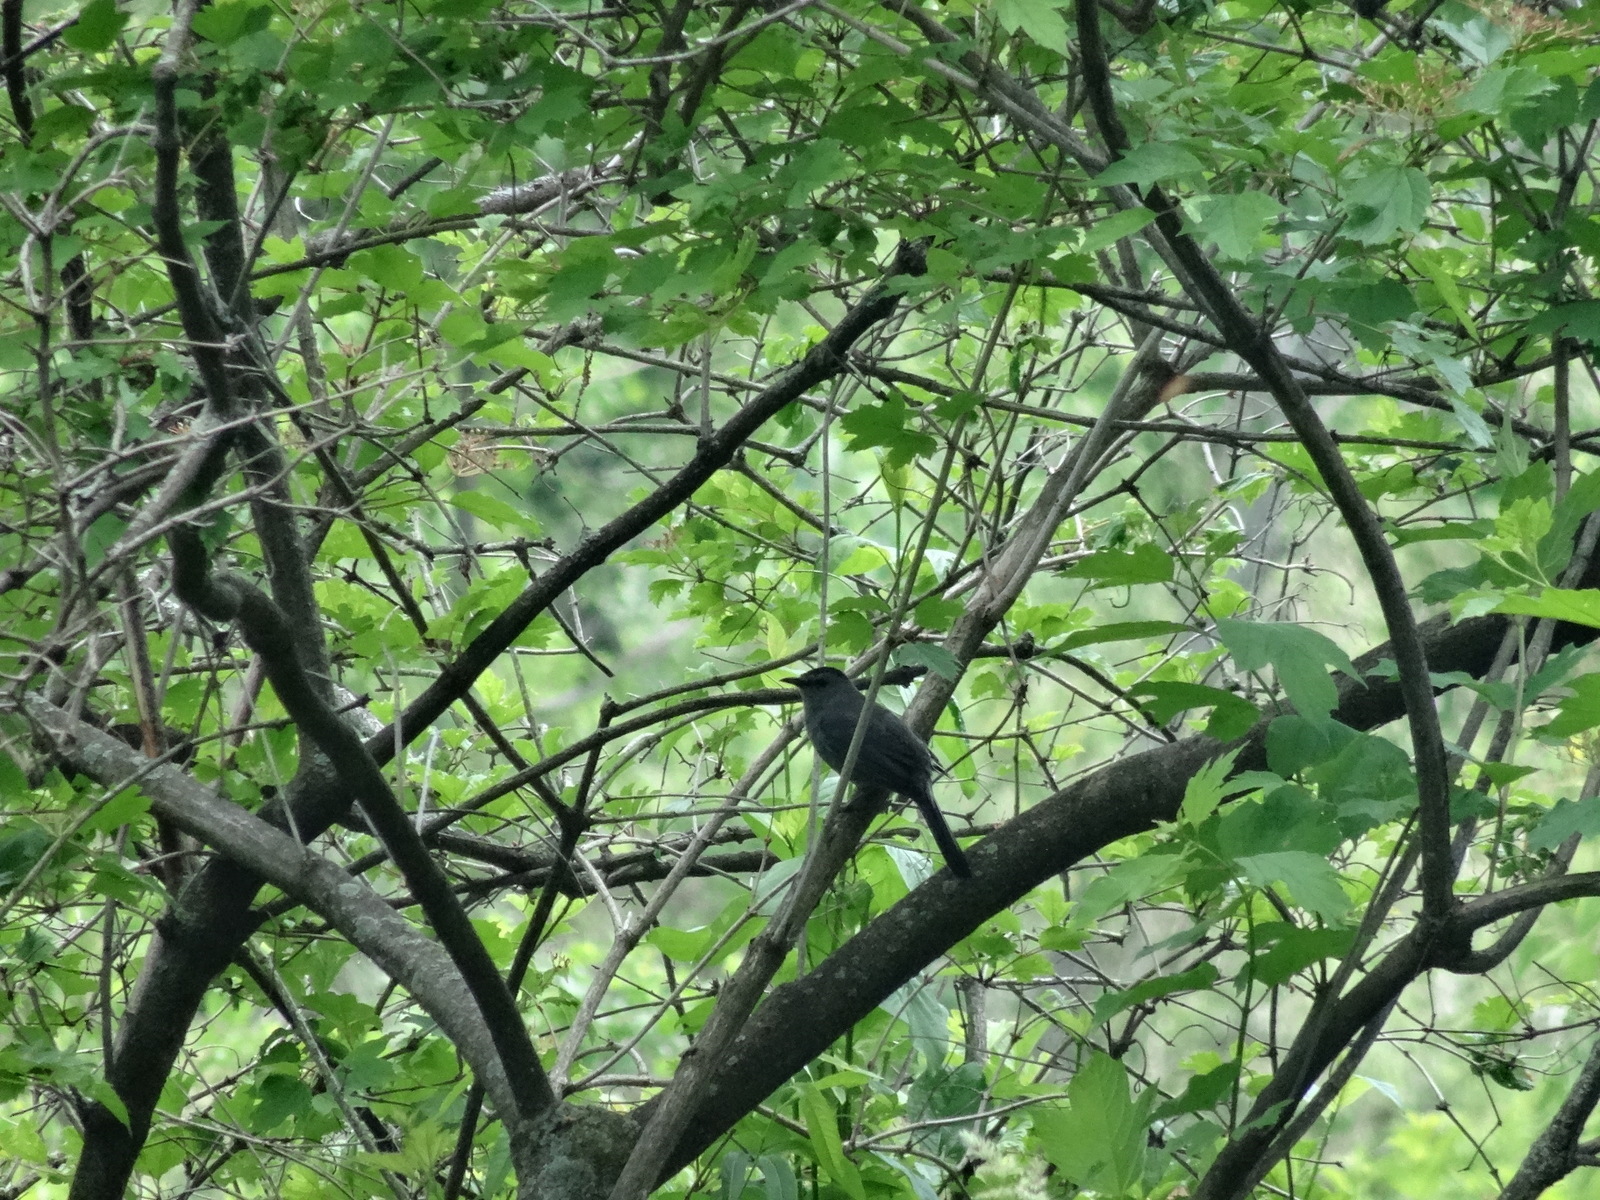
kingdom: Animalia
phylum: Chordata
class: Aves
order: Passeriformes
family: Mimidae
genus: Dumetella
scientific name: Dumetella carolinensis
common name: Gray catbird
